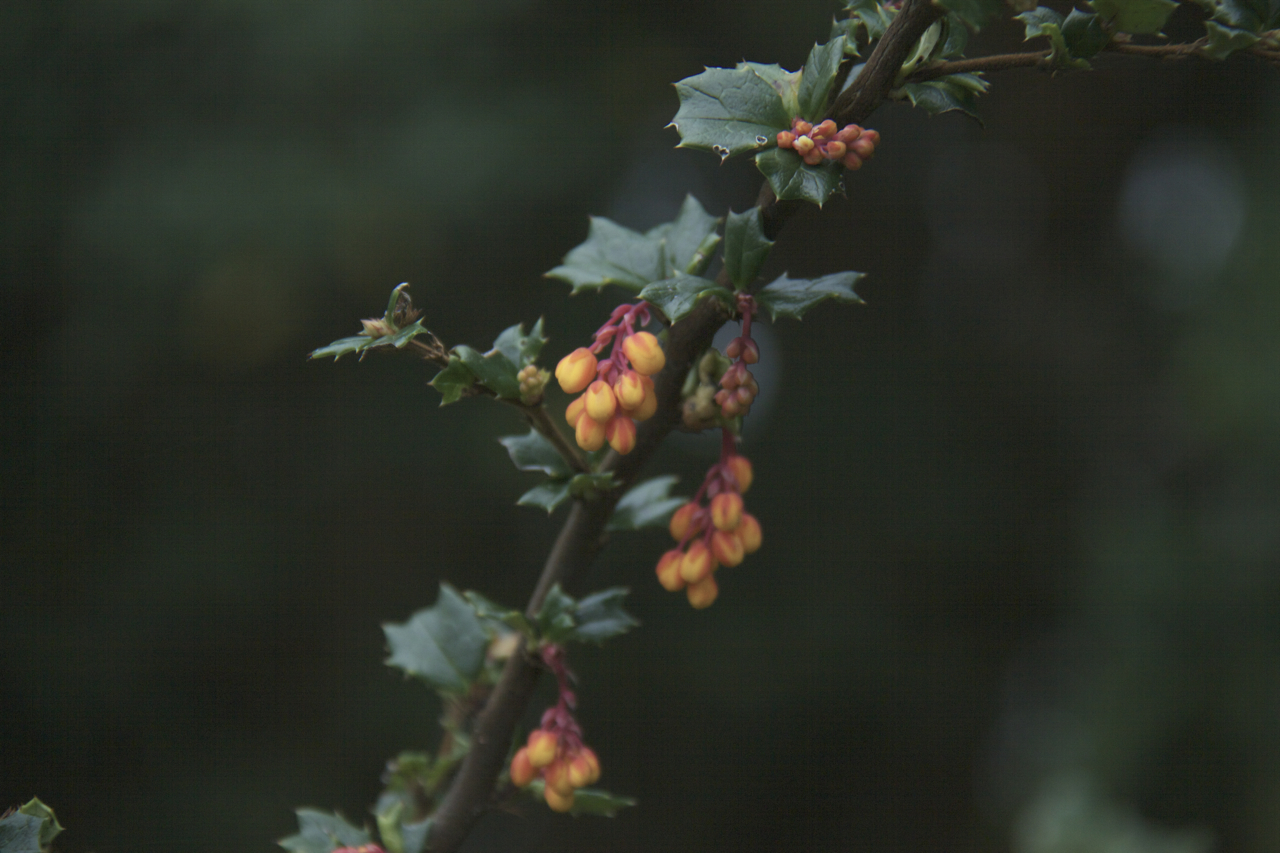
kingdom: Plantae
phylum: Tracheophyta
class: Magnoliopsida
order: Ranunculales
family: Berberidaceae
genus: Berberis
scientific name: Berberis darwinii
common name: Darwin's barberry
